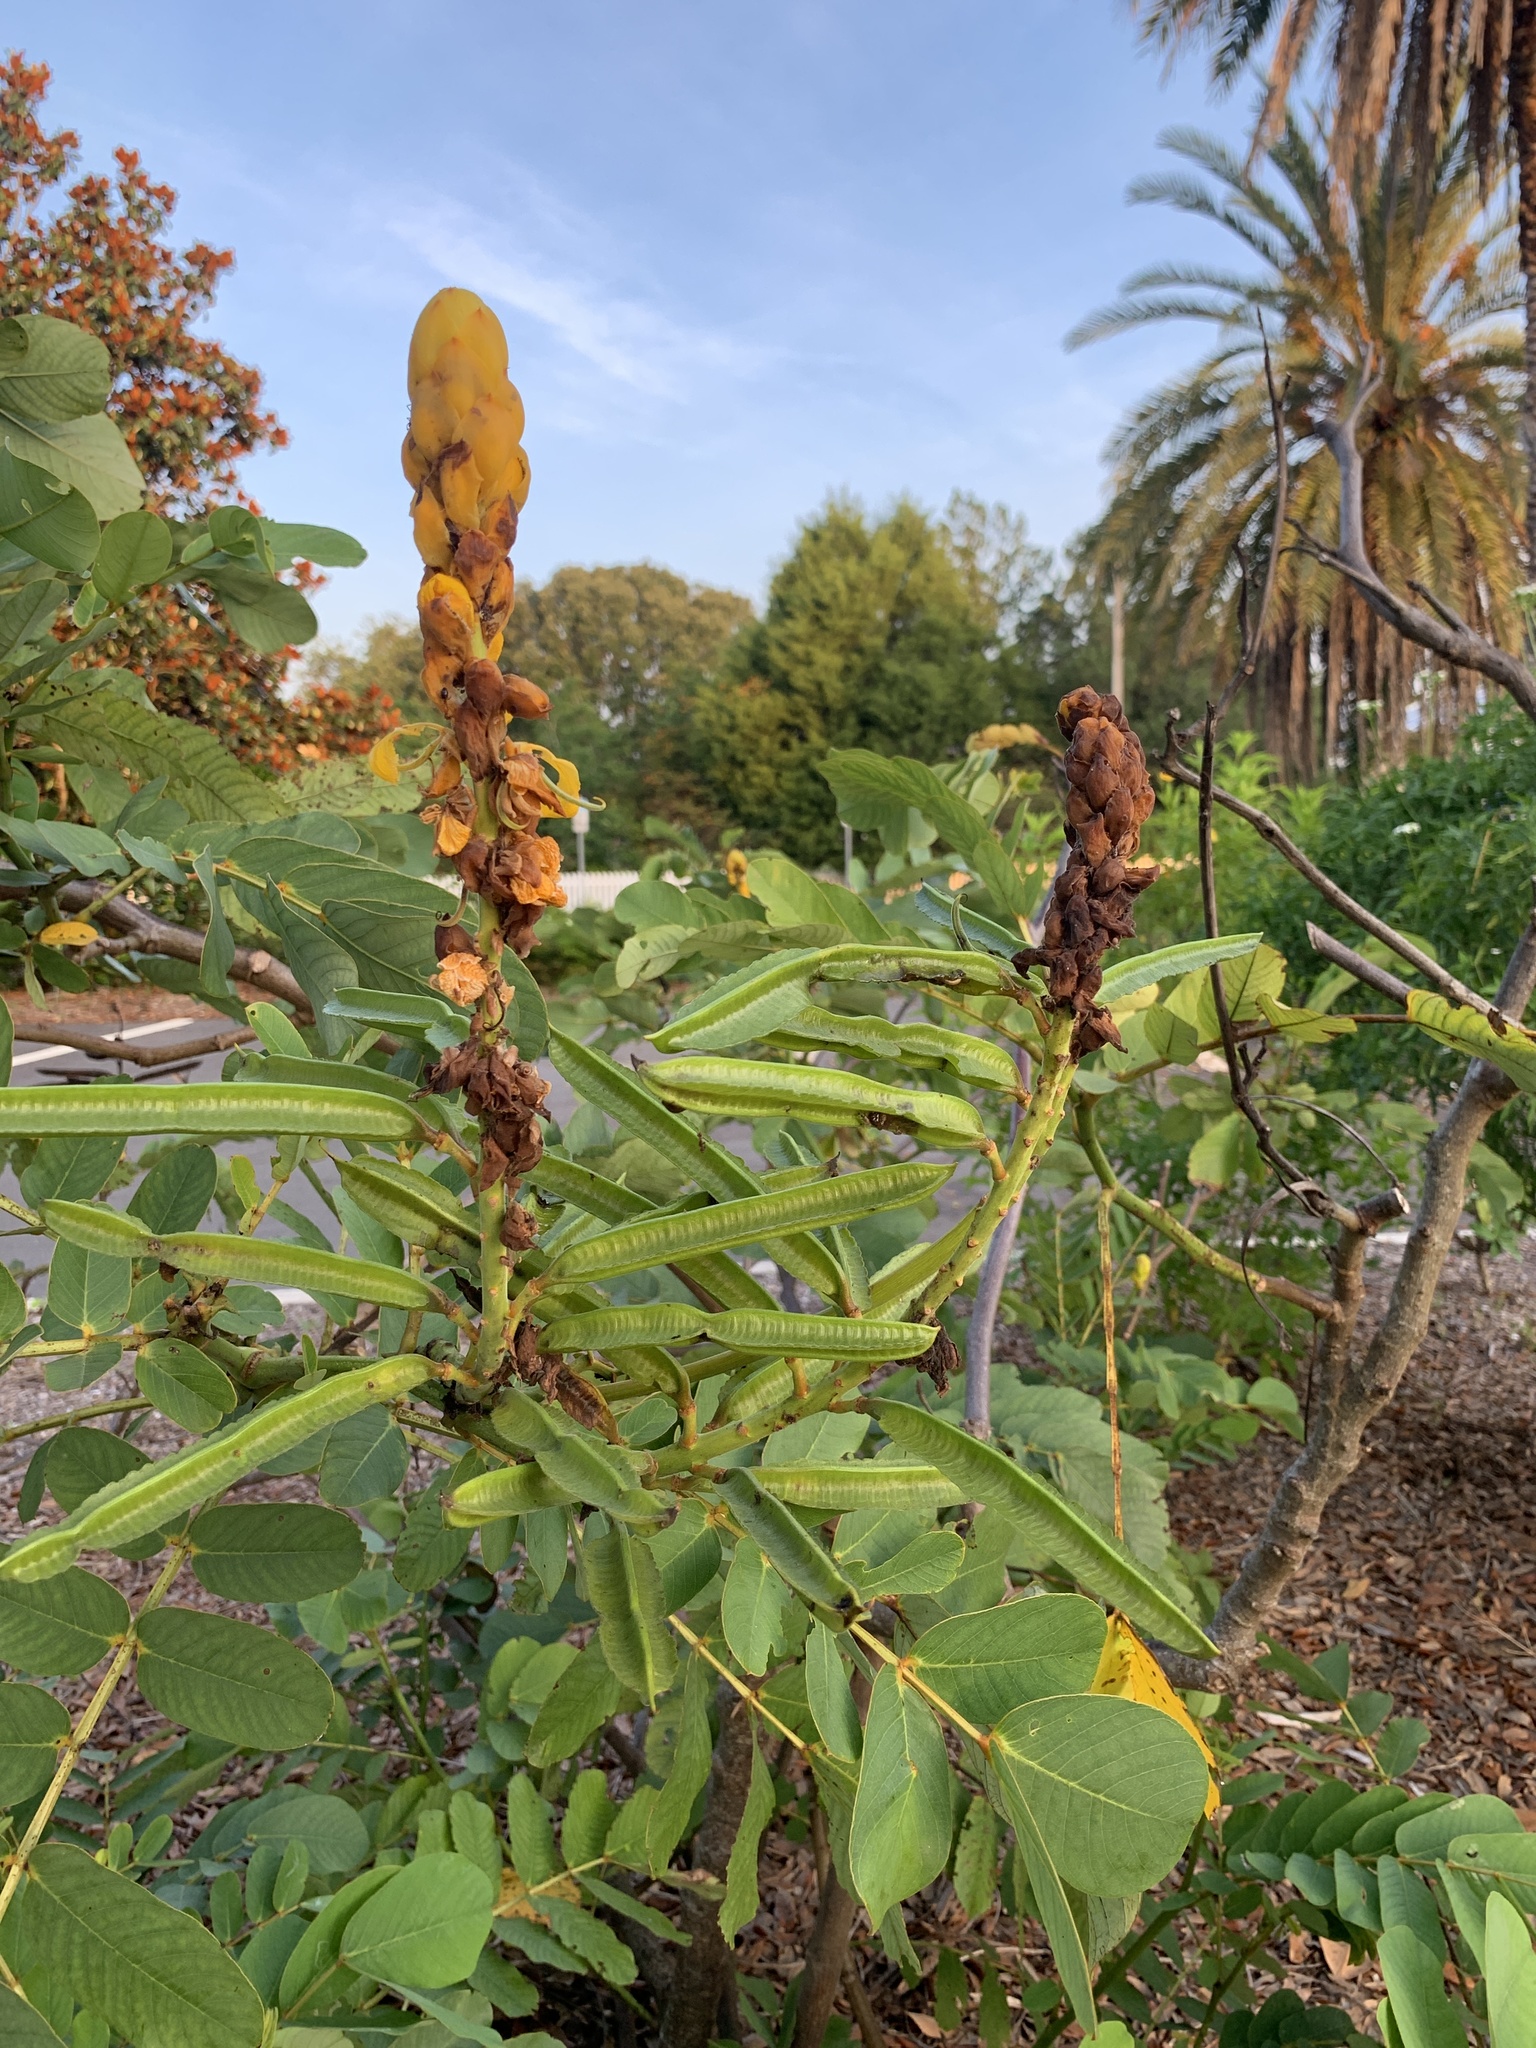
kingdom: Plantae
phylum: Tracheophyta
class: Magnoliopsida
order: Fabales
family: Fabaceae
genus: Senna
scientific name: Senna alata
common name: Emperor's candlesticks
